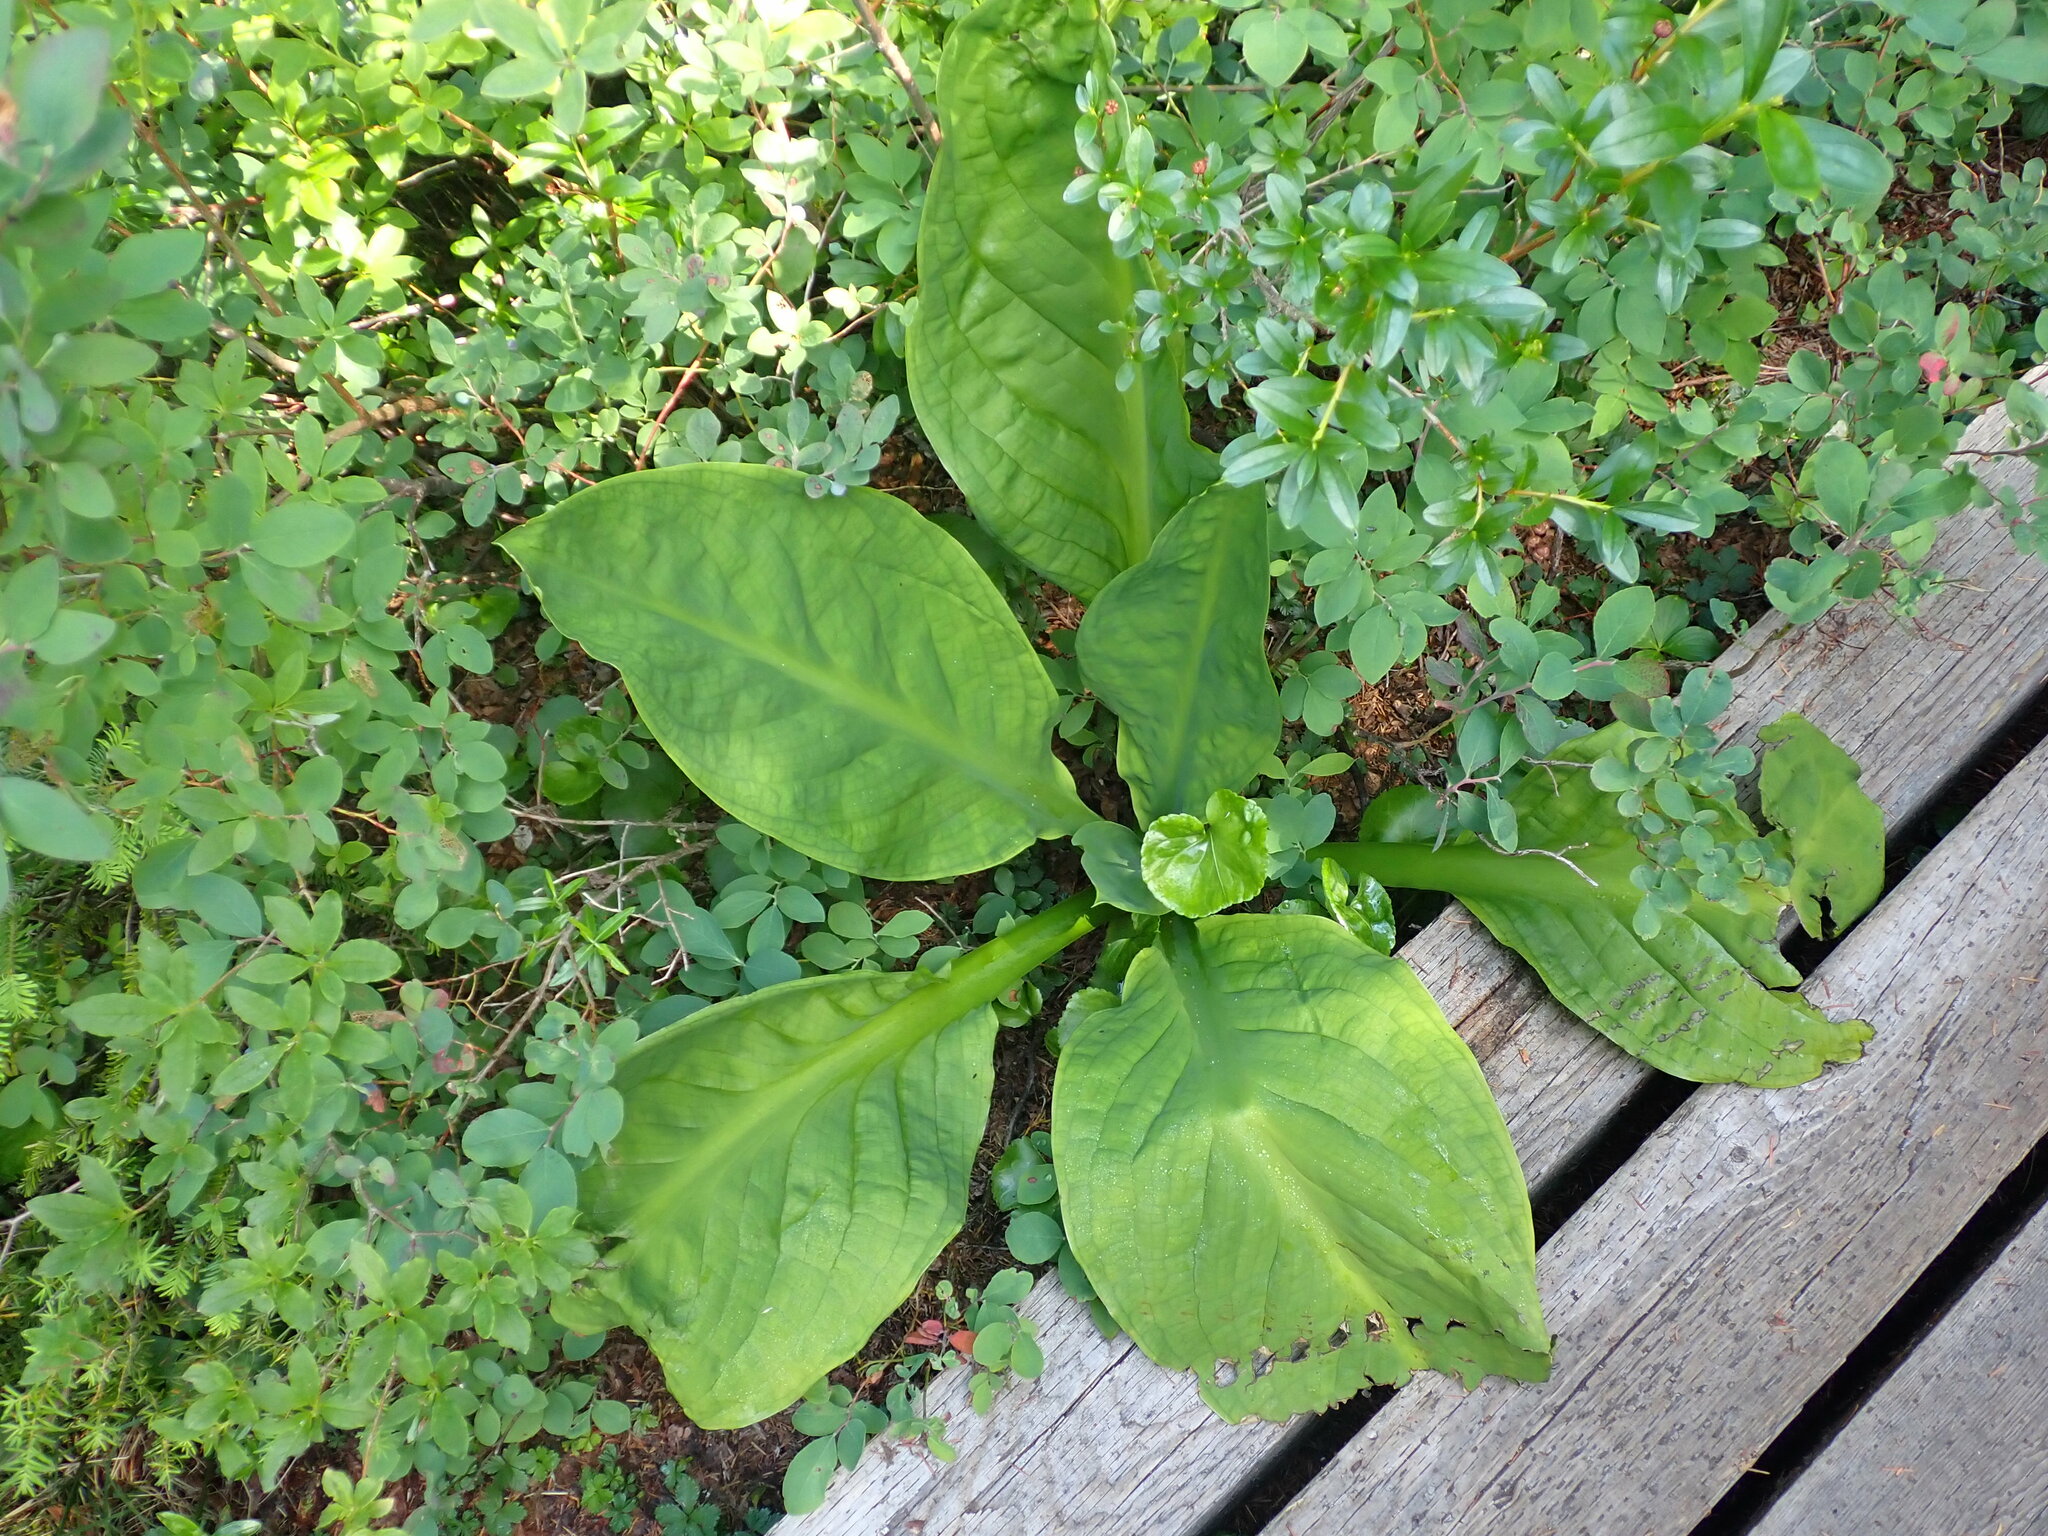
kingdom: Plantae
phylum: Tracheophyta
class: Liliopsida
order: Alismatales
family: Araceae
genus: Lysichiton
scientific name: Lysichiton americanus
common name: American skunk cabbage
